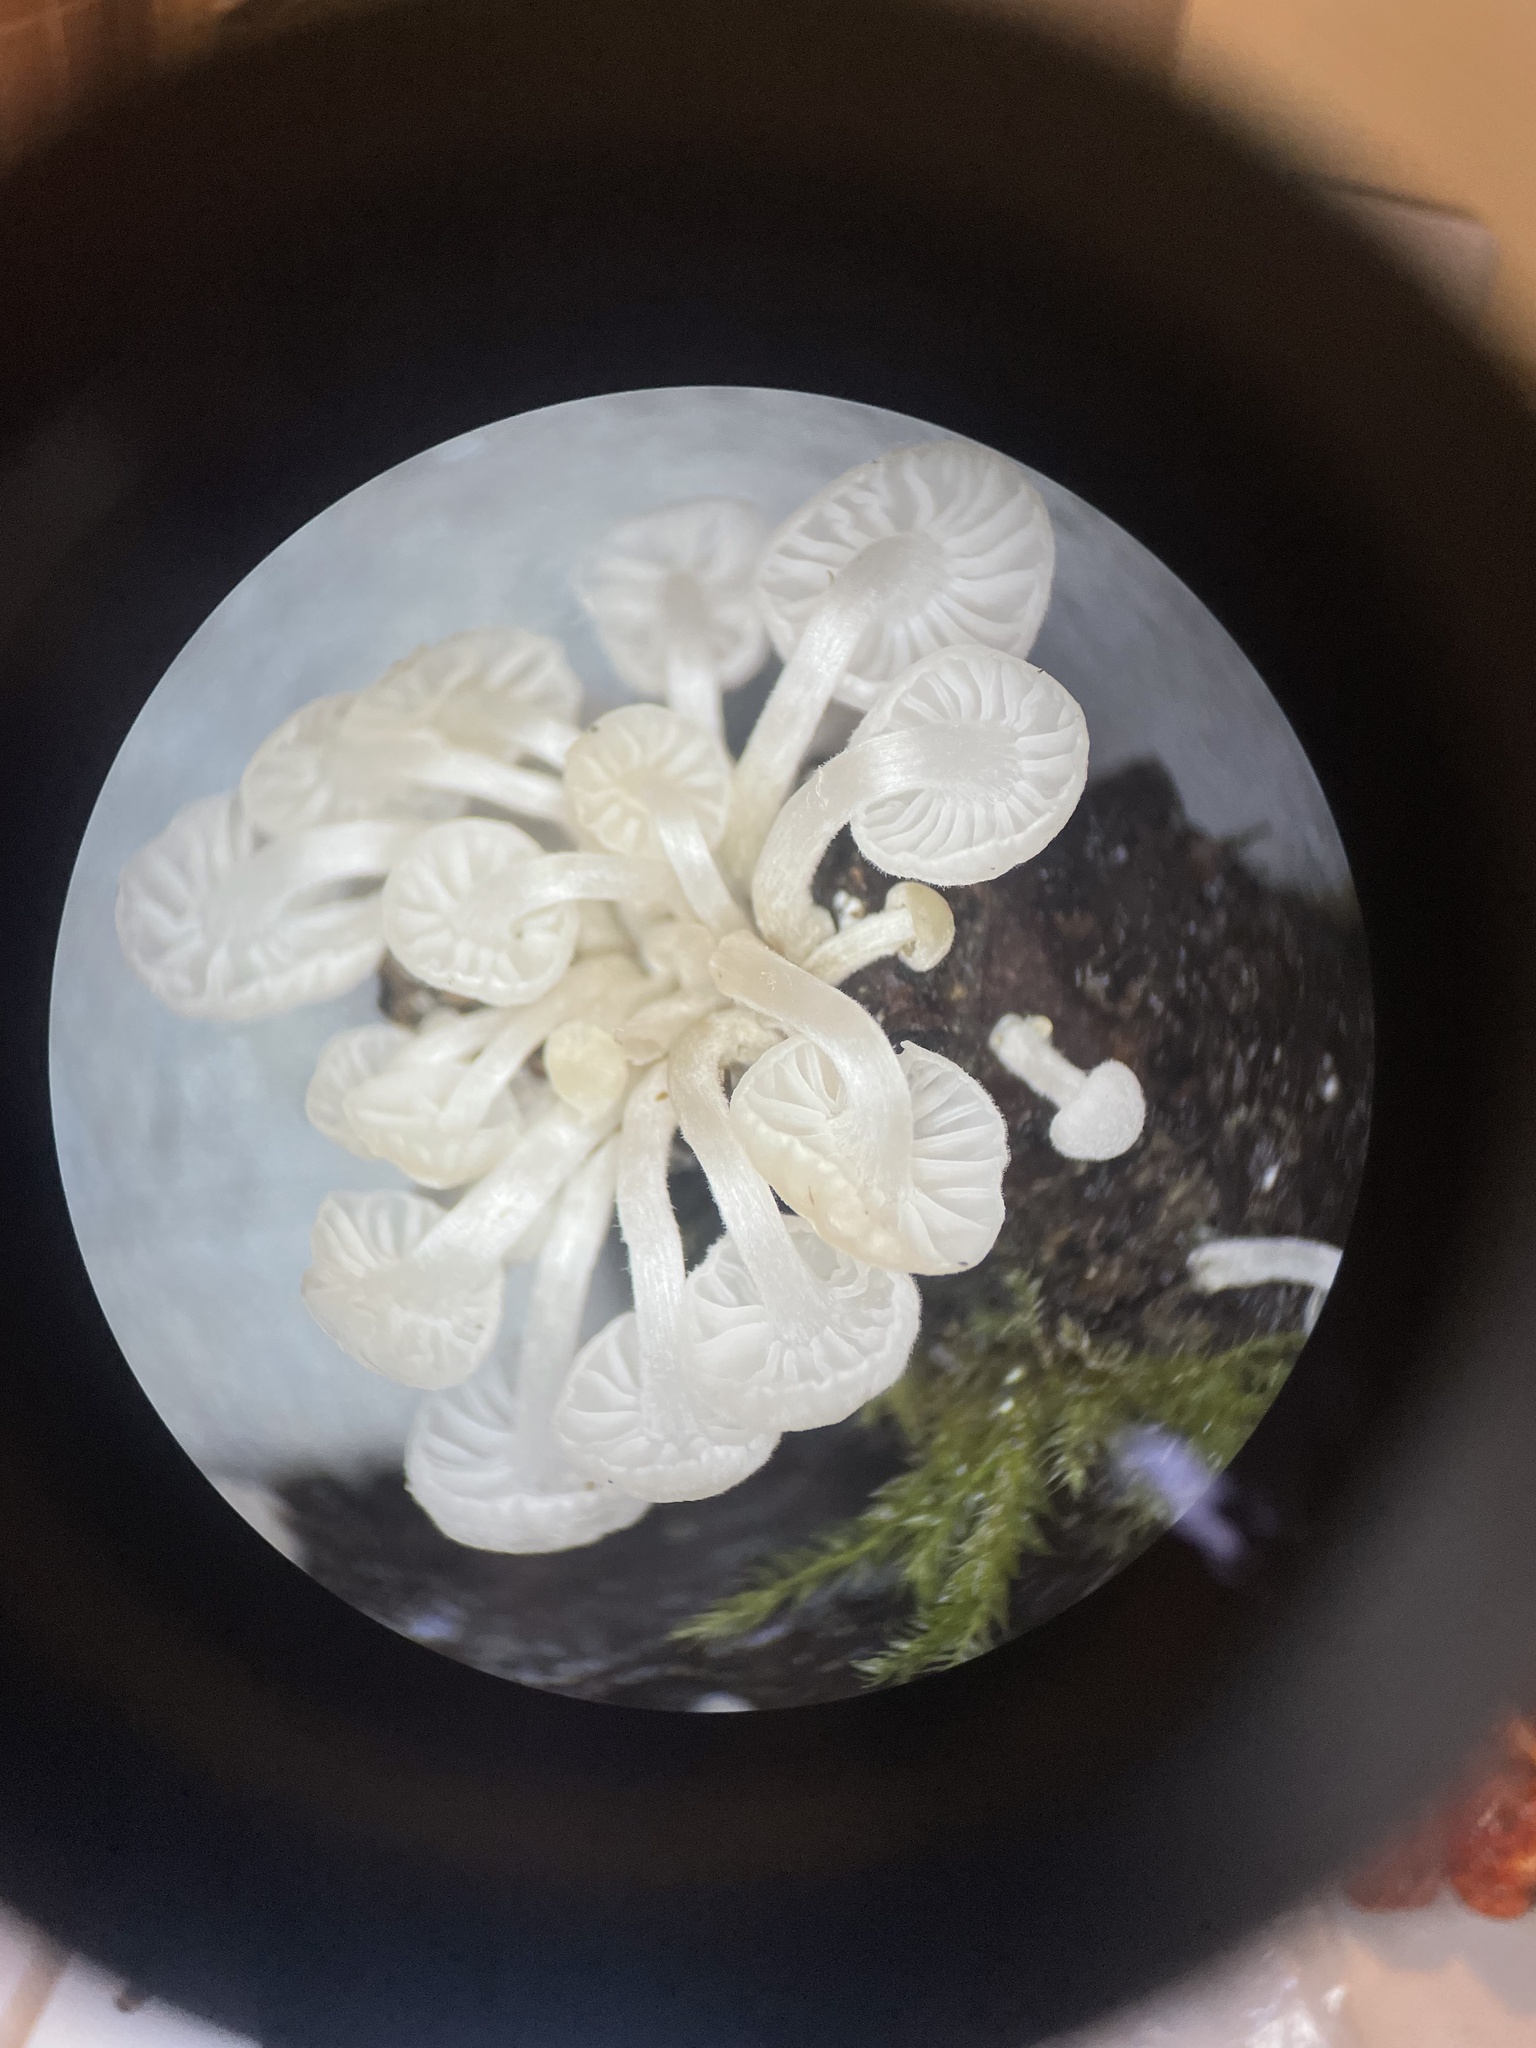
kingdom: Fungi
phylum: Basidiomycota
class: Agaricomycetes
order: Agaricales
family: Omphalotaceae
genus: Marasmiellus
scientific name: Marasmiellus candidus
